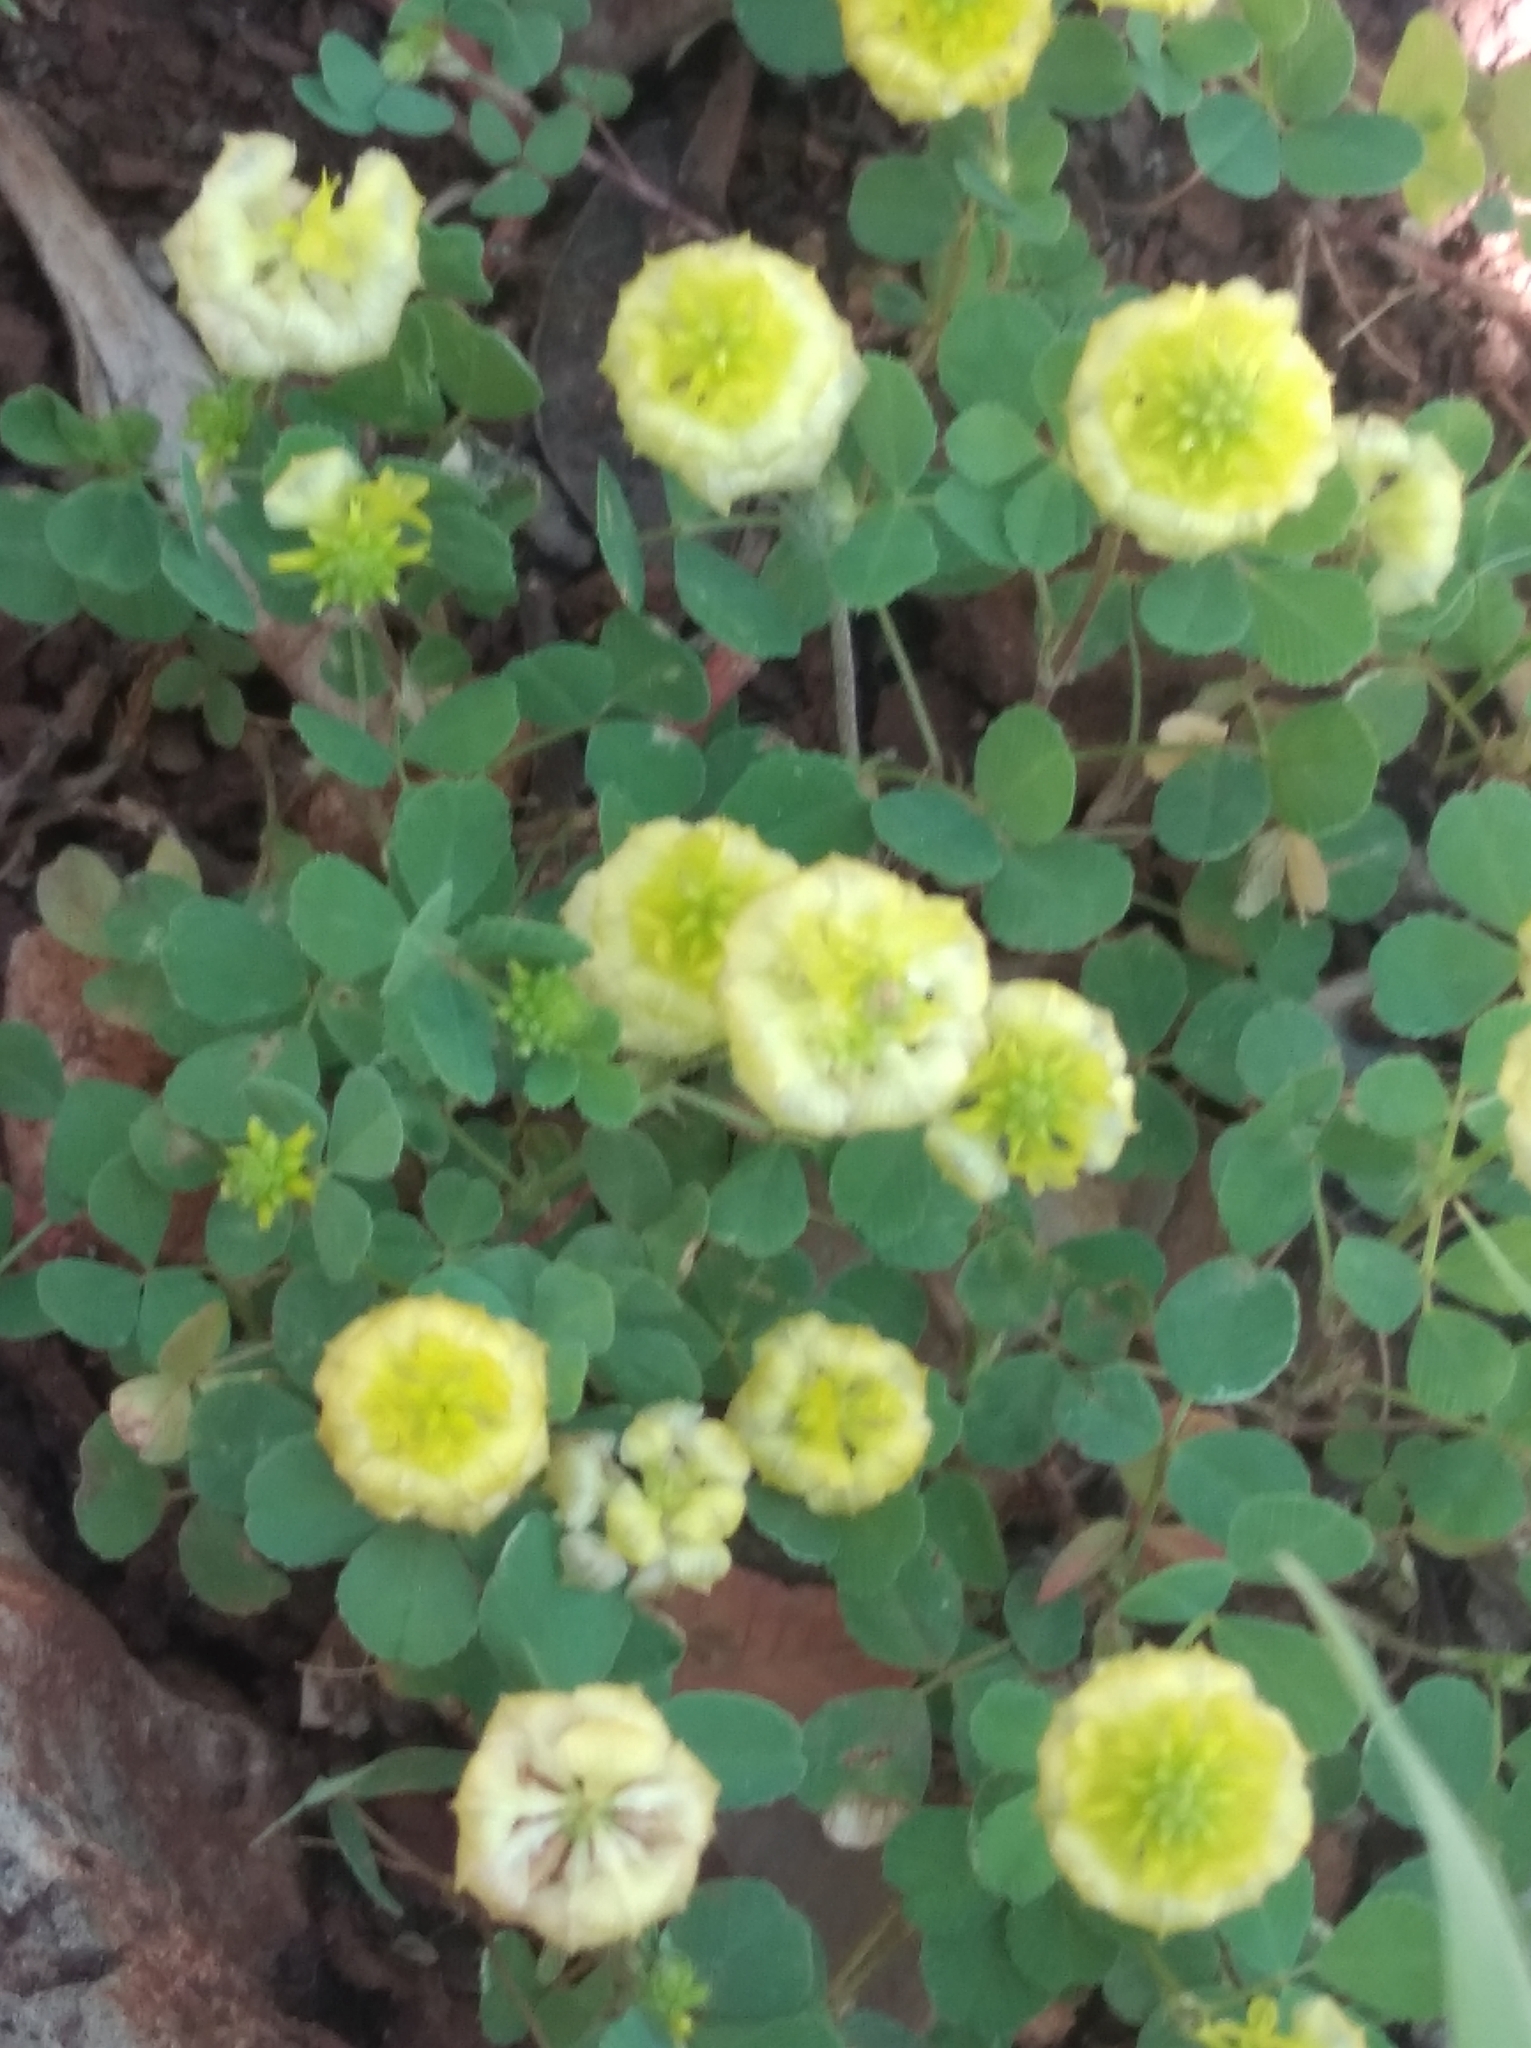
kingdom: Plantae
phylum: Tracheophyta
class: Magnoliopsida
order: Fabales
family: Fabaceae
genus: Trifolium
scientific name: Trifolium campestre
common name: Field clover
